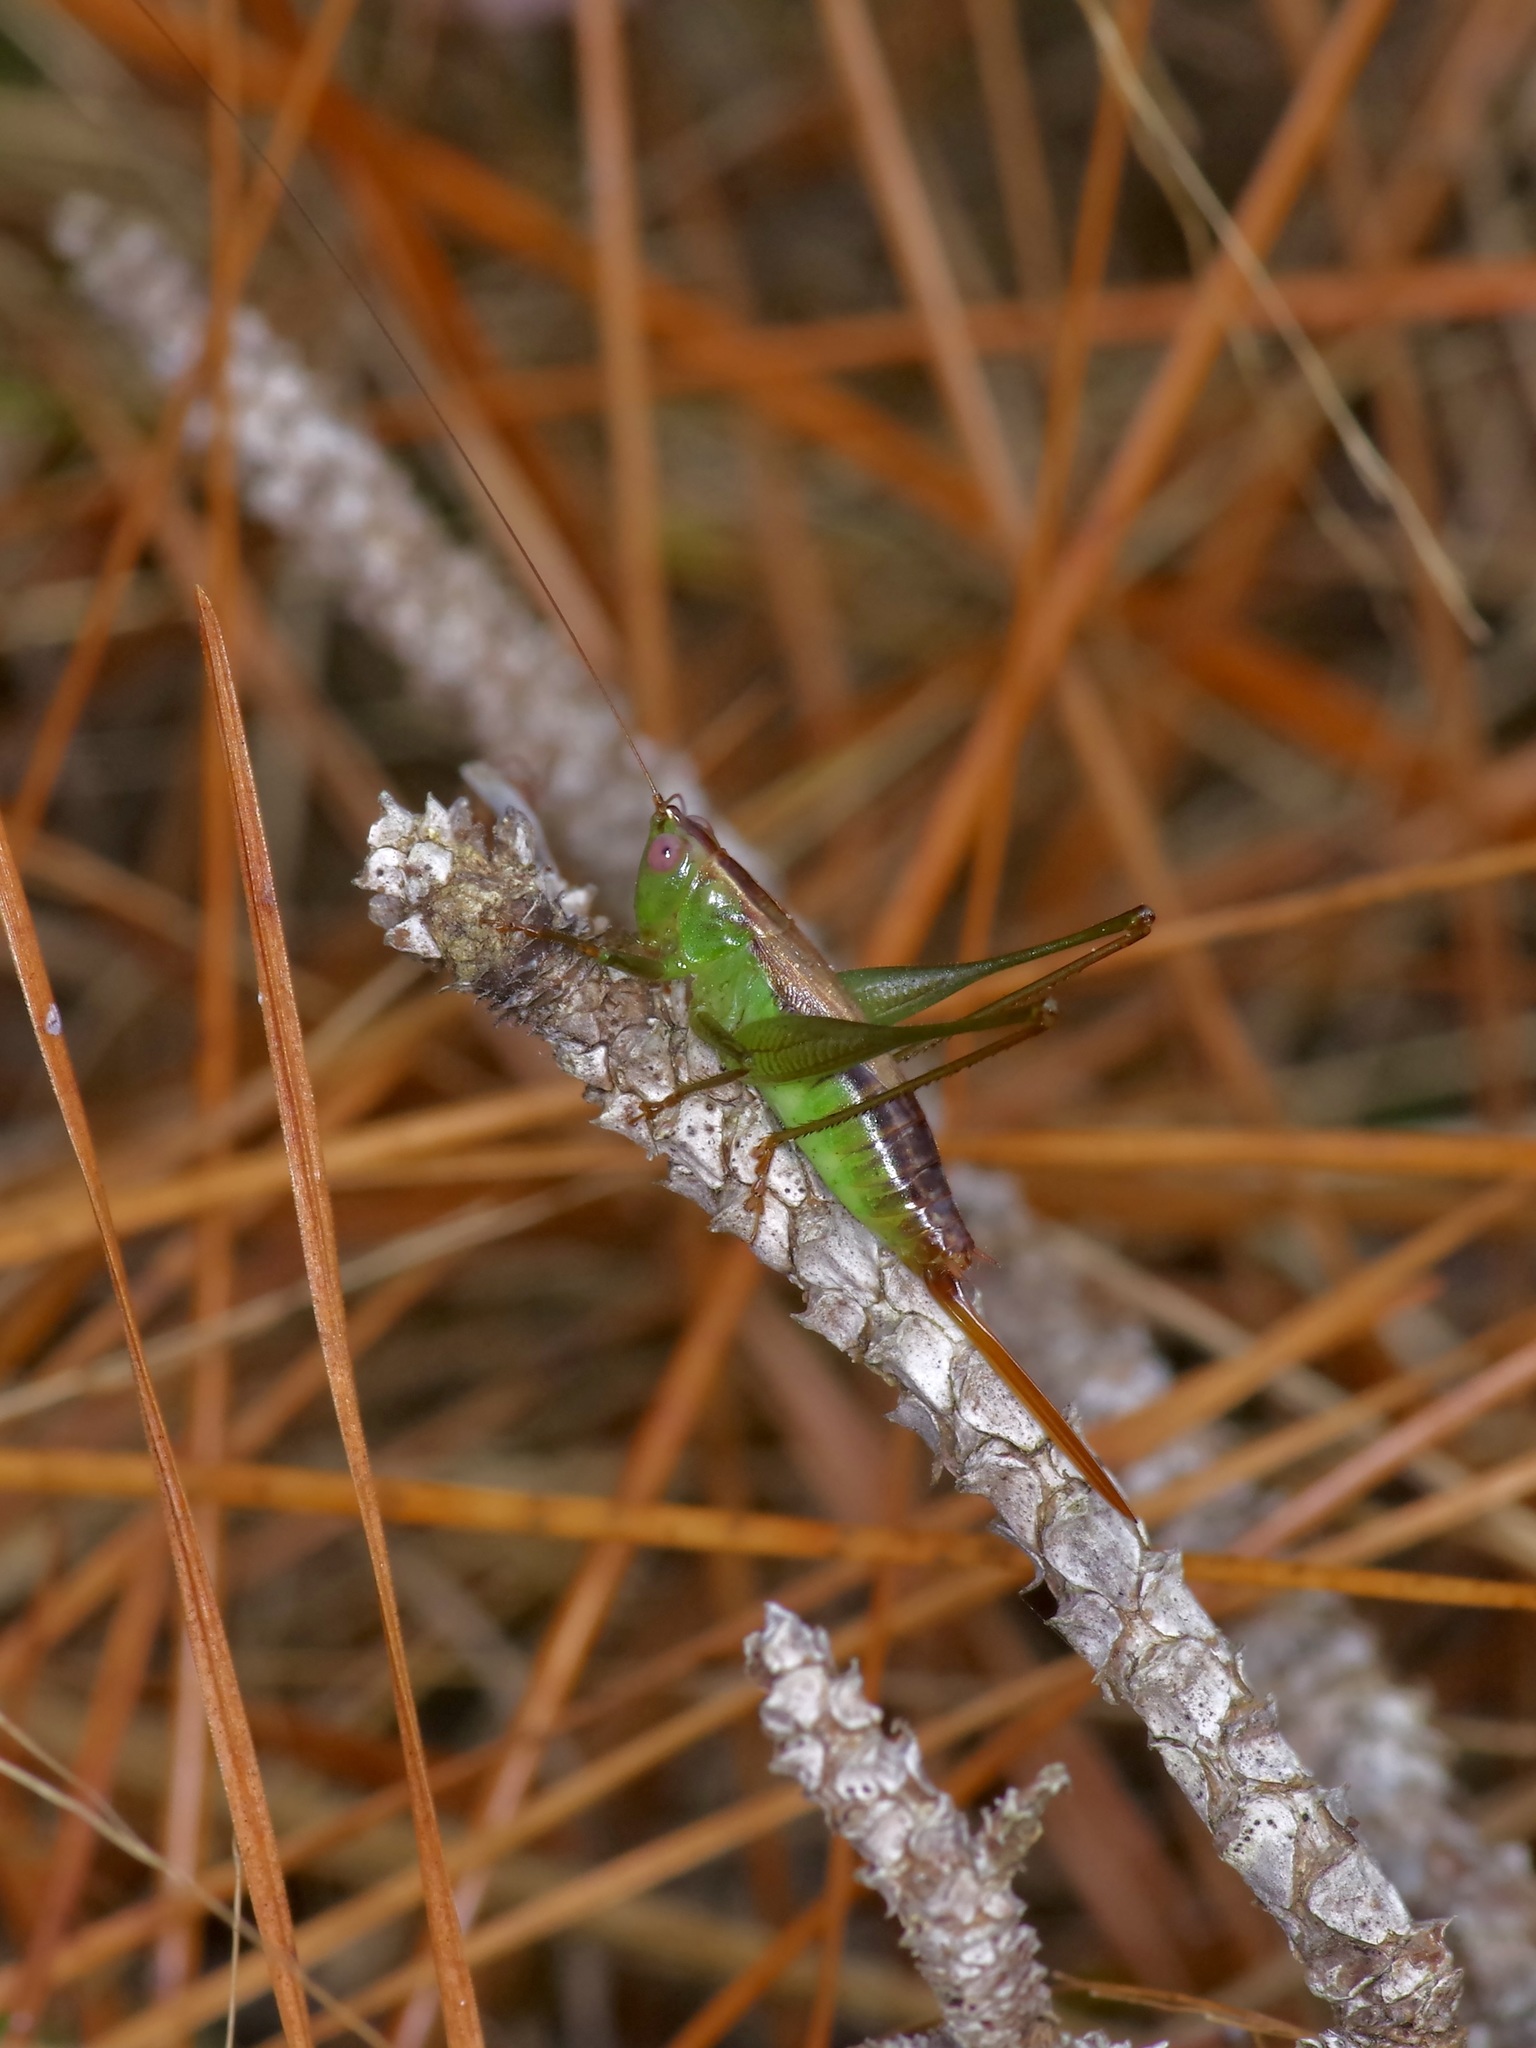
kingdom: Animalia
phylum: Arthropoda
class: Insecta
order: Orthoptera
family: Tettigoniidae
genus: Conocephalus
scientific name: Conocephalus brevipennis
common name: Short-winged meadow katydid
